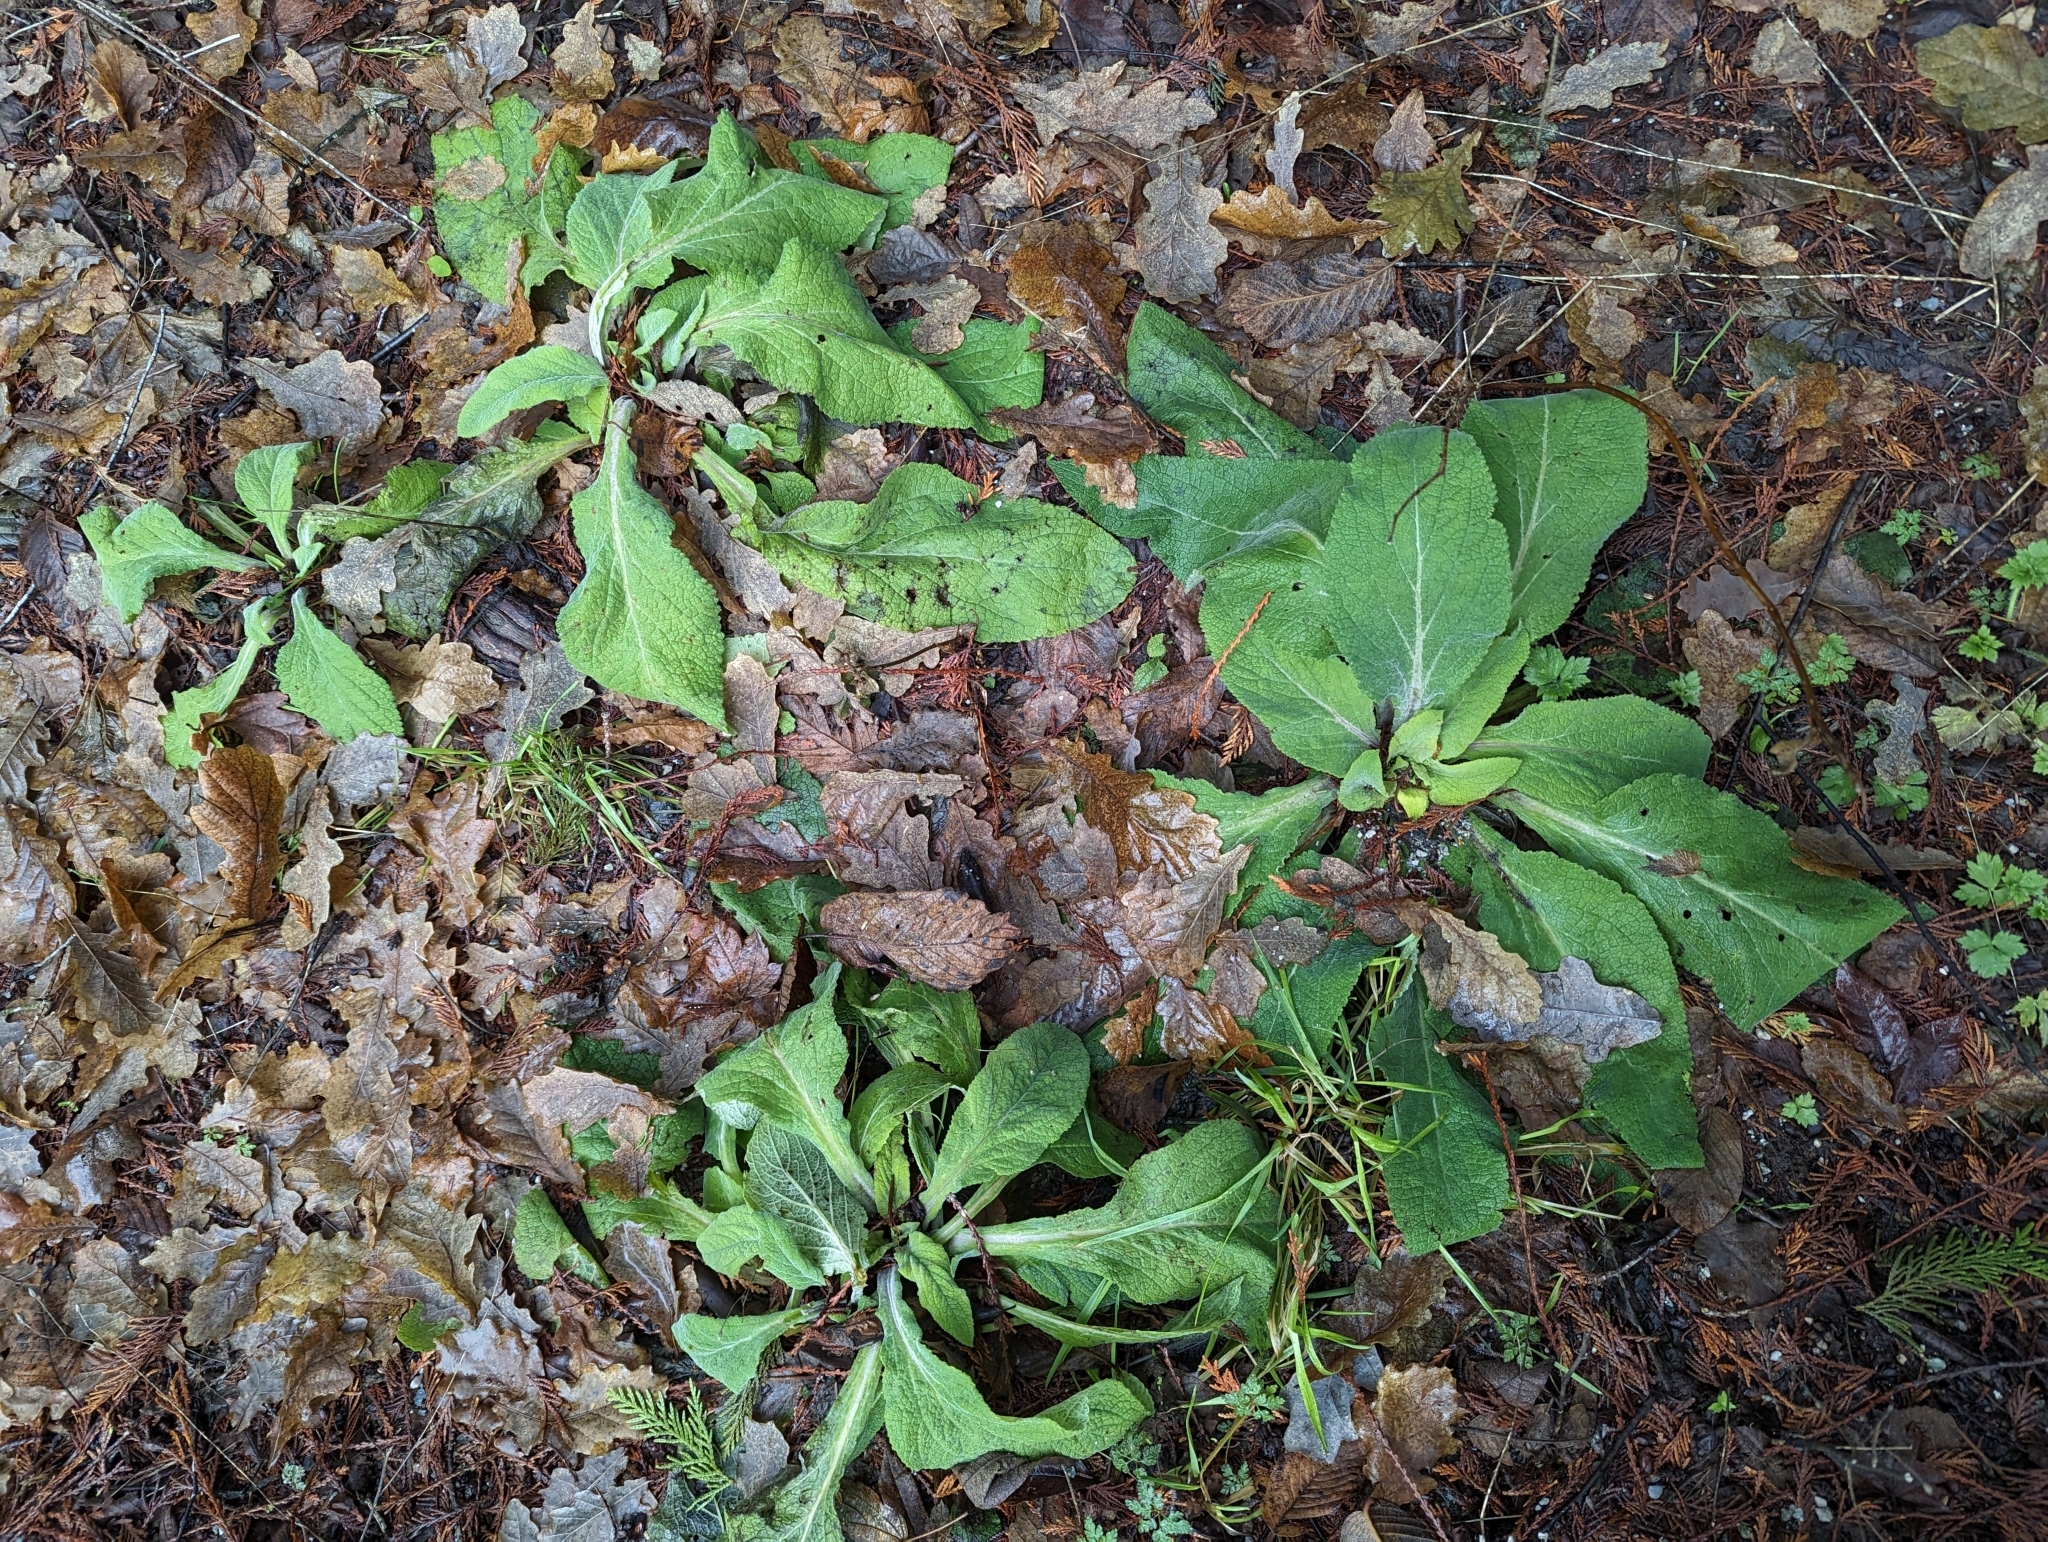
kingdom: Plantae
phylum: Tracheophyta
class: Magnoliopsida
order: Lamiales
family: Plantaginaceae
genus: Digitalis
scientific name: Digitalis purpurea
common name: Foxglove
